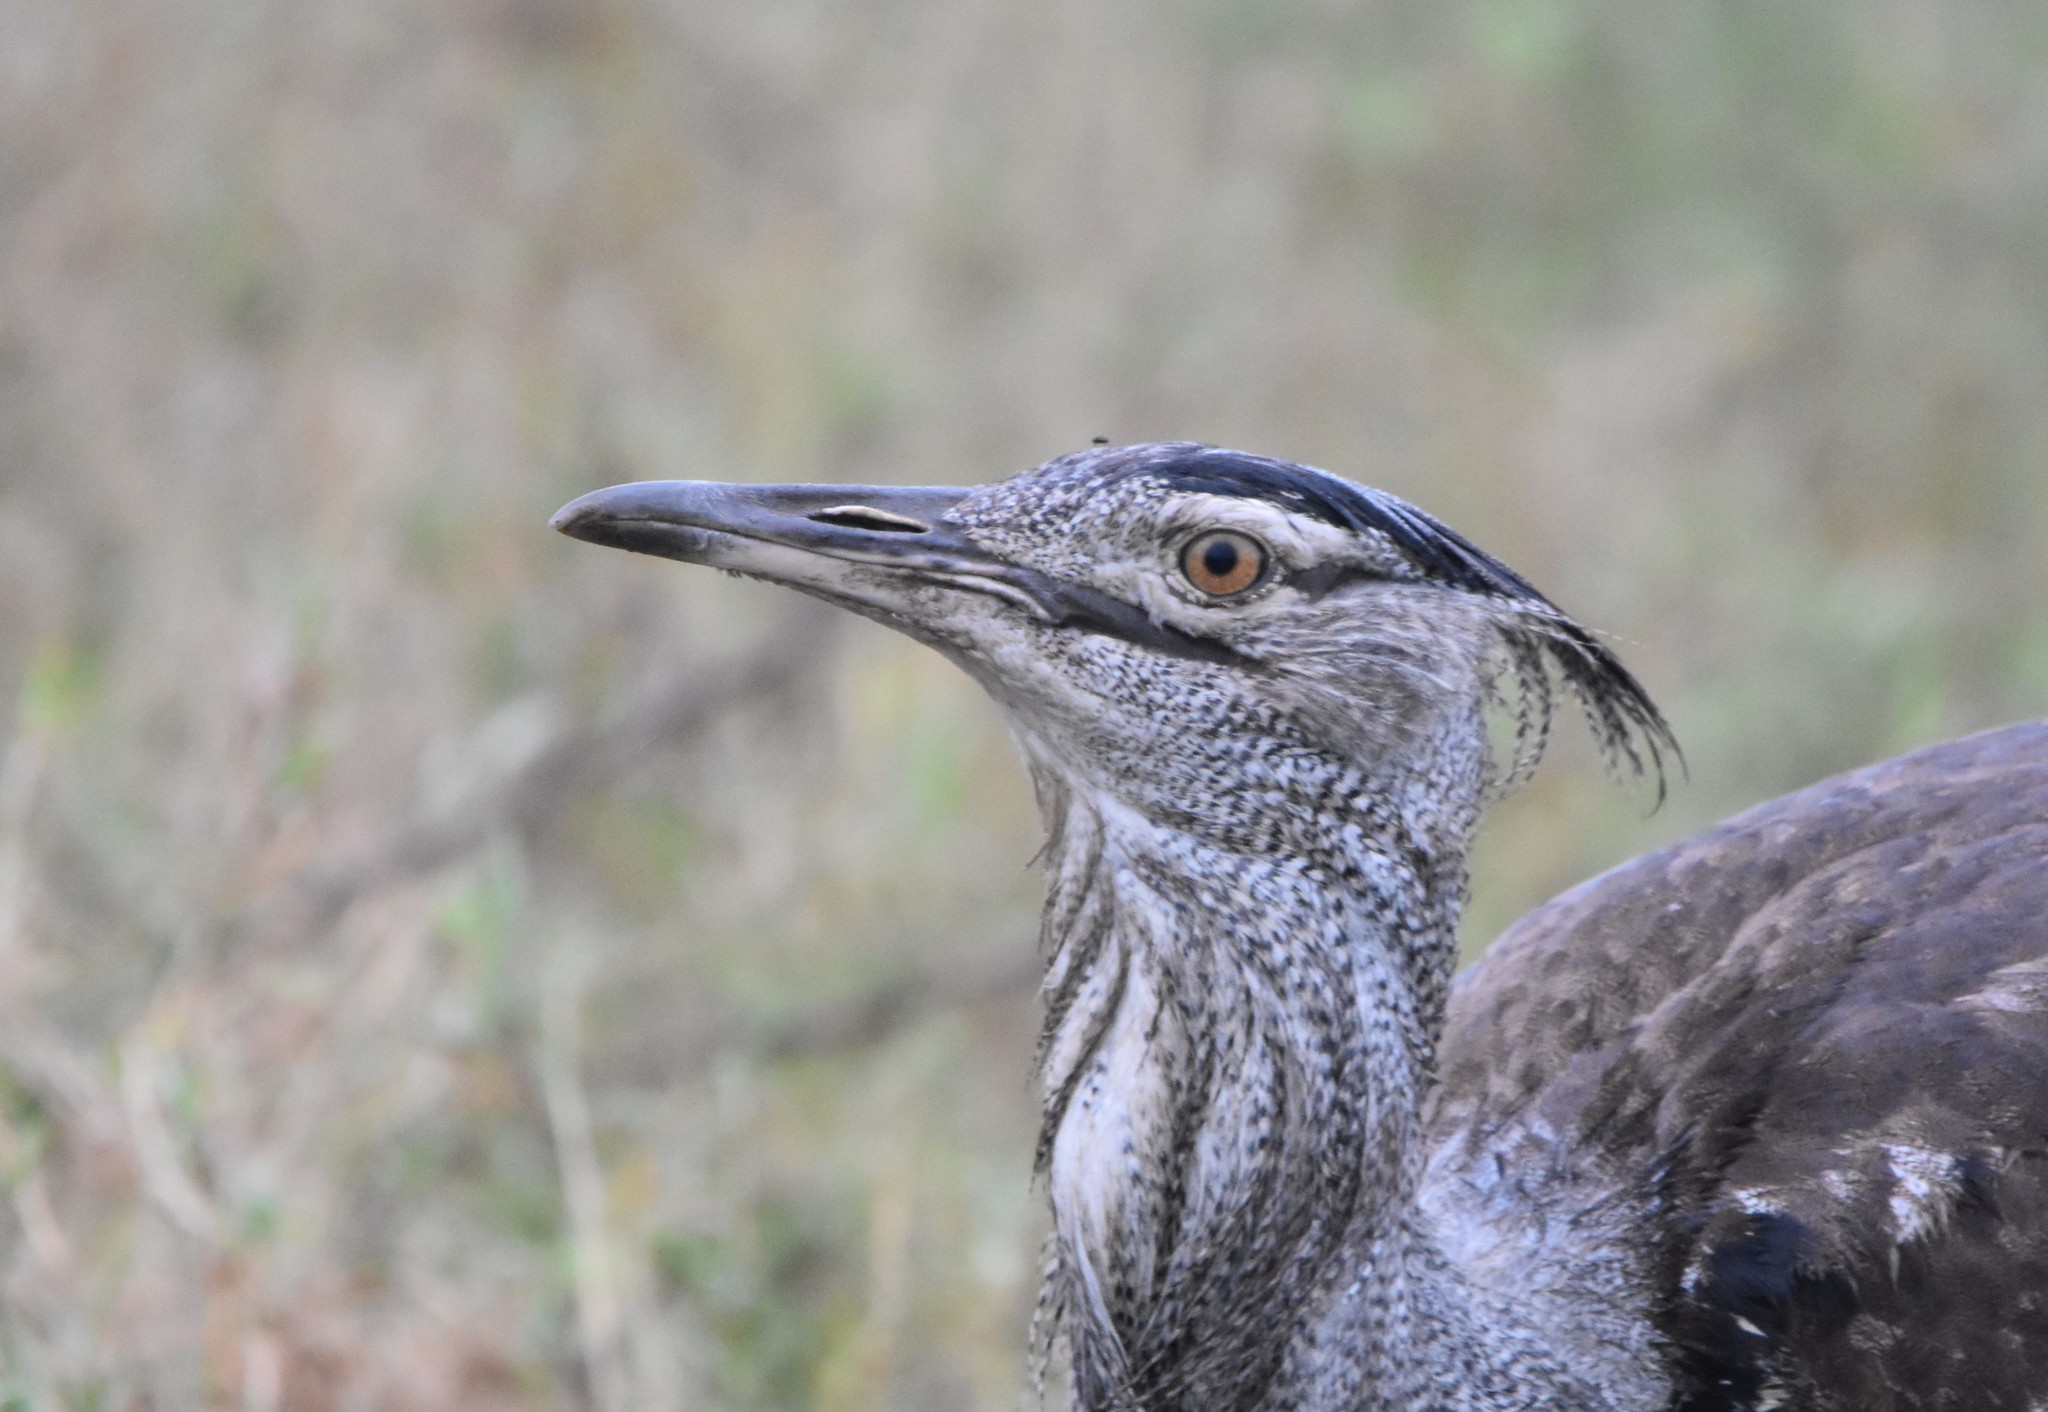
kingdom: Animalia
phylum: Chordata
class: Aves
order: Otidiformes
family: Otididae
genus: Ardeotis
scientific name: Ardeotis kori
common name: Kori bustard
